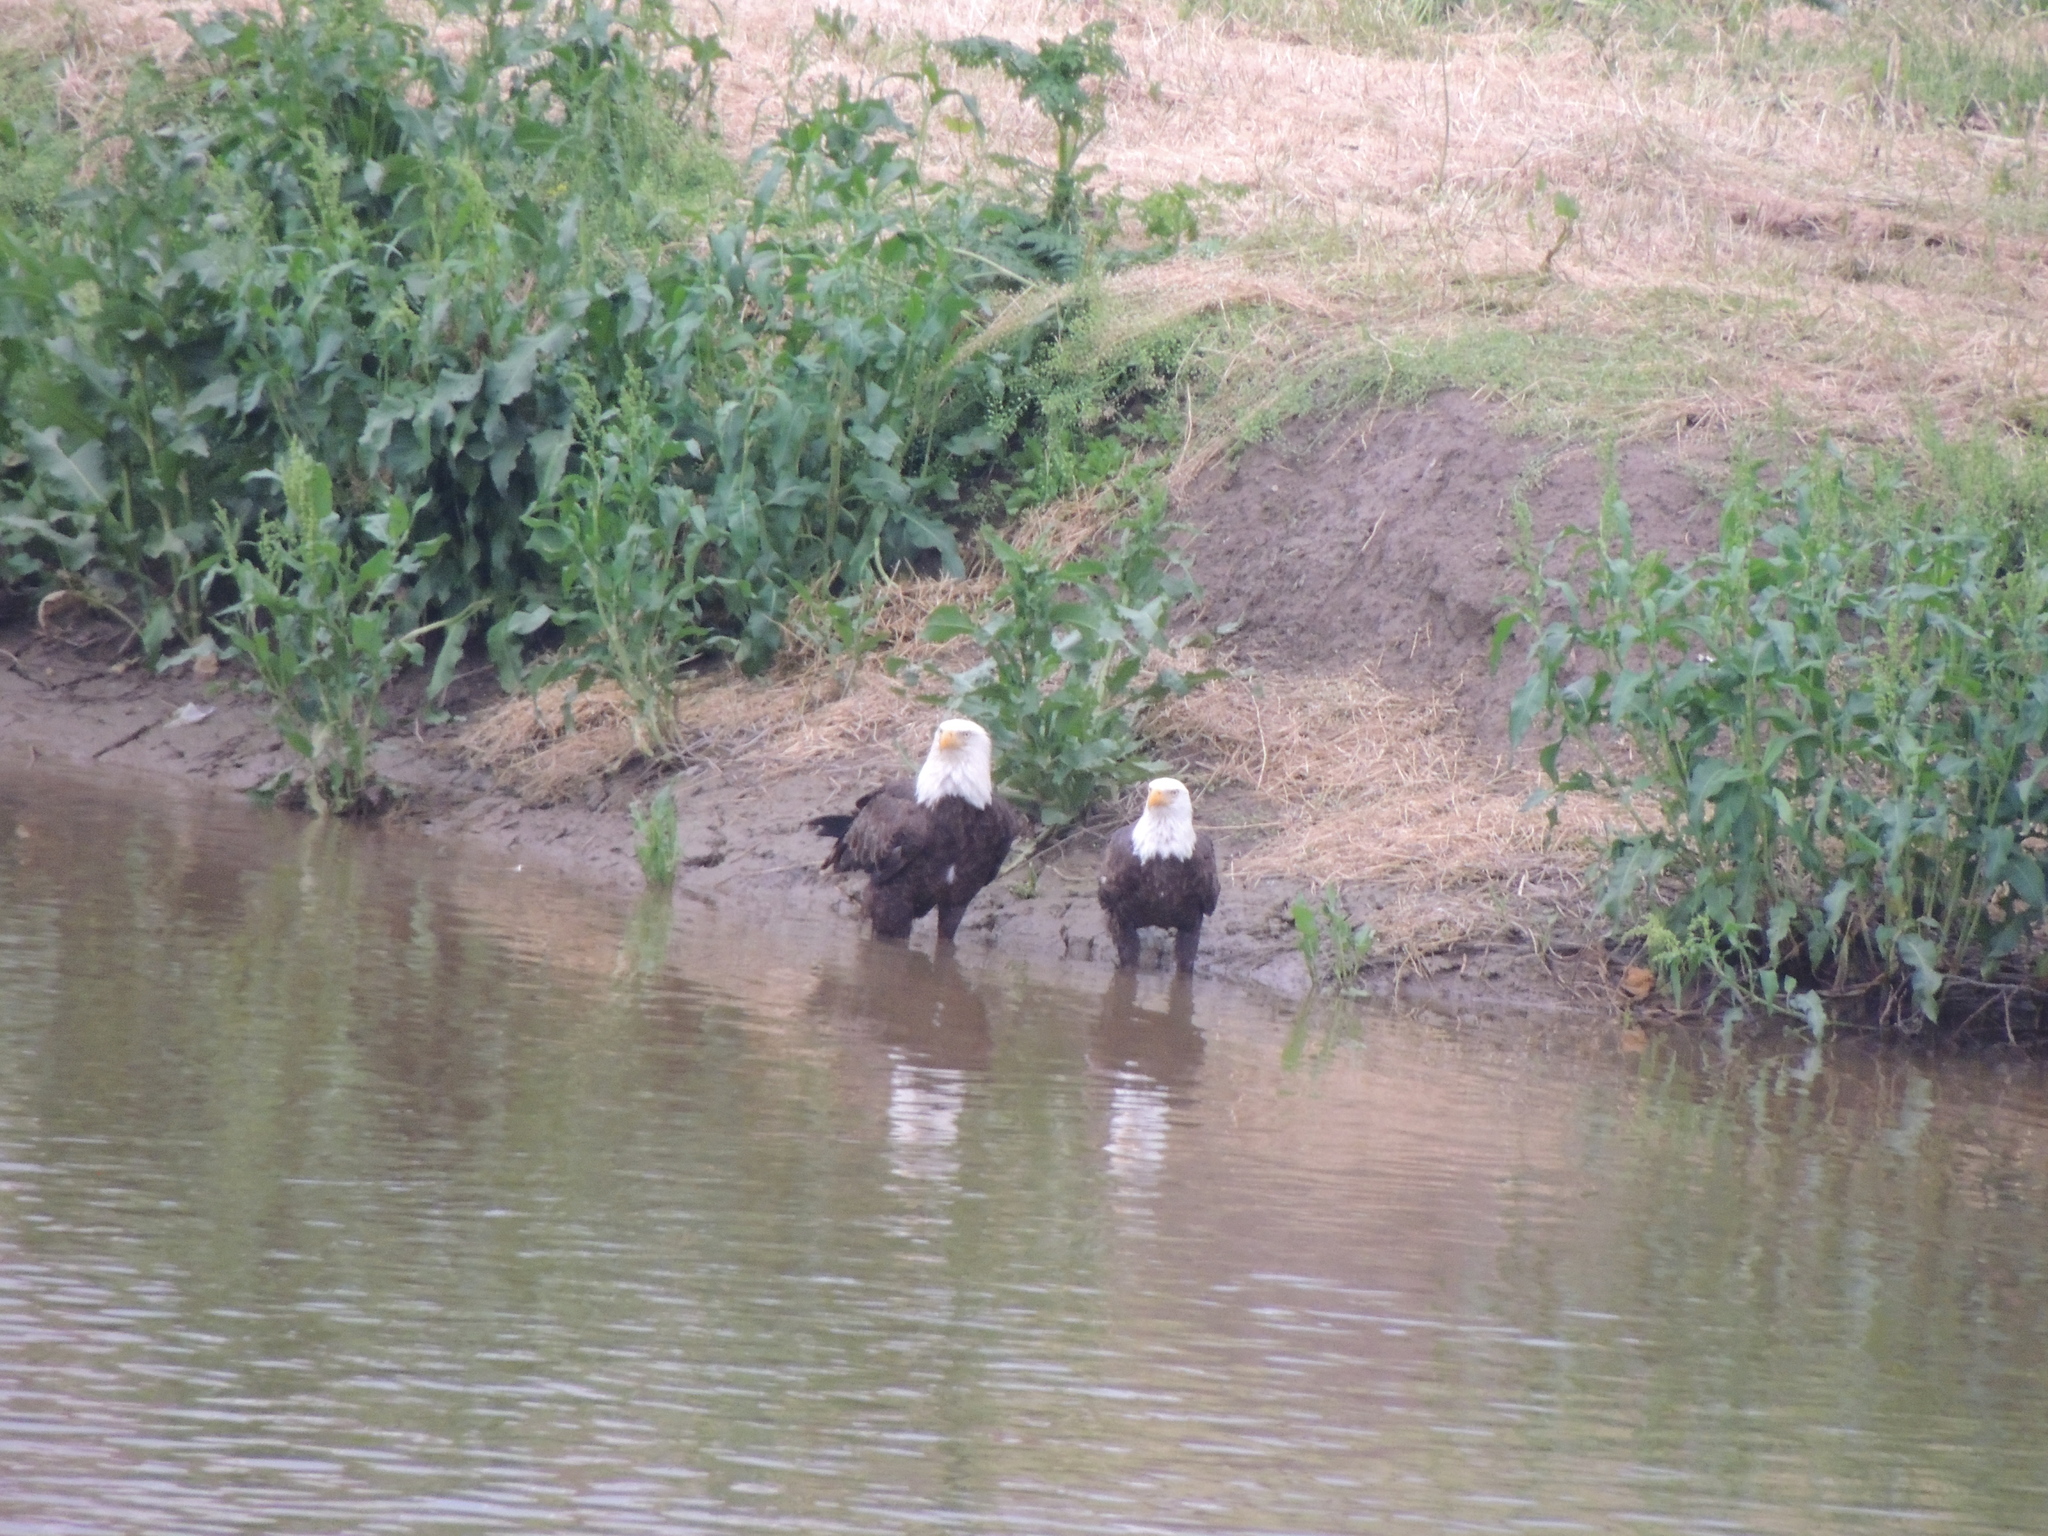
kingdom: Animalia
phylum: Chordata
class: Aves
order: Accipitriformes
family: Accipitridae
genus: Haliaeetus
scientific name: Haliaeetus leucocephalus
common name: Bald eagle
